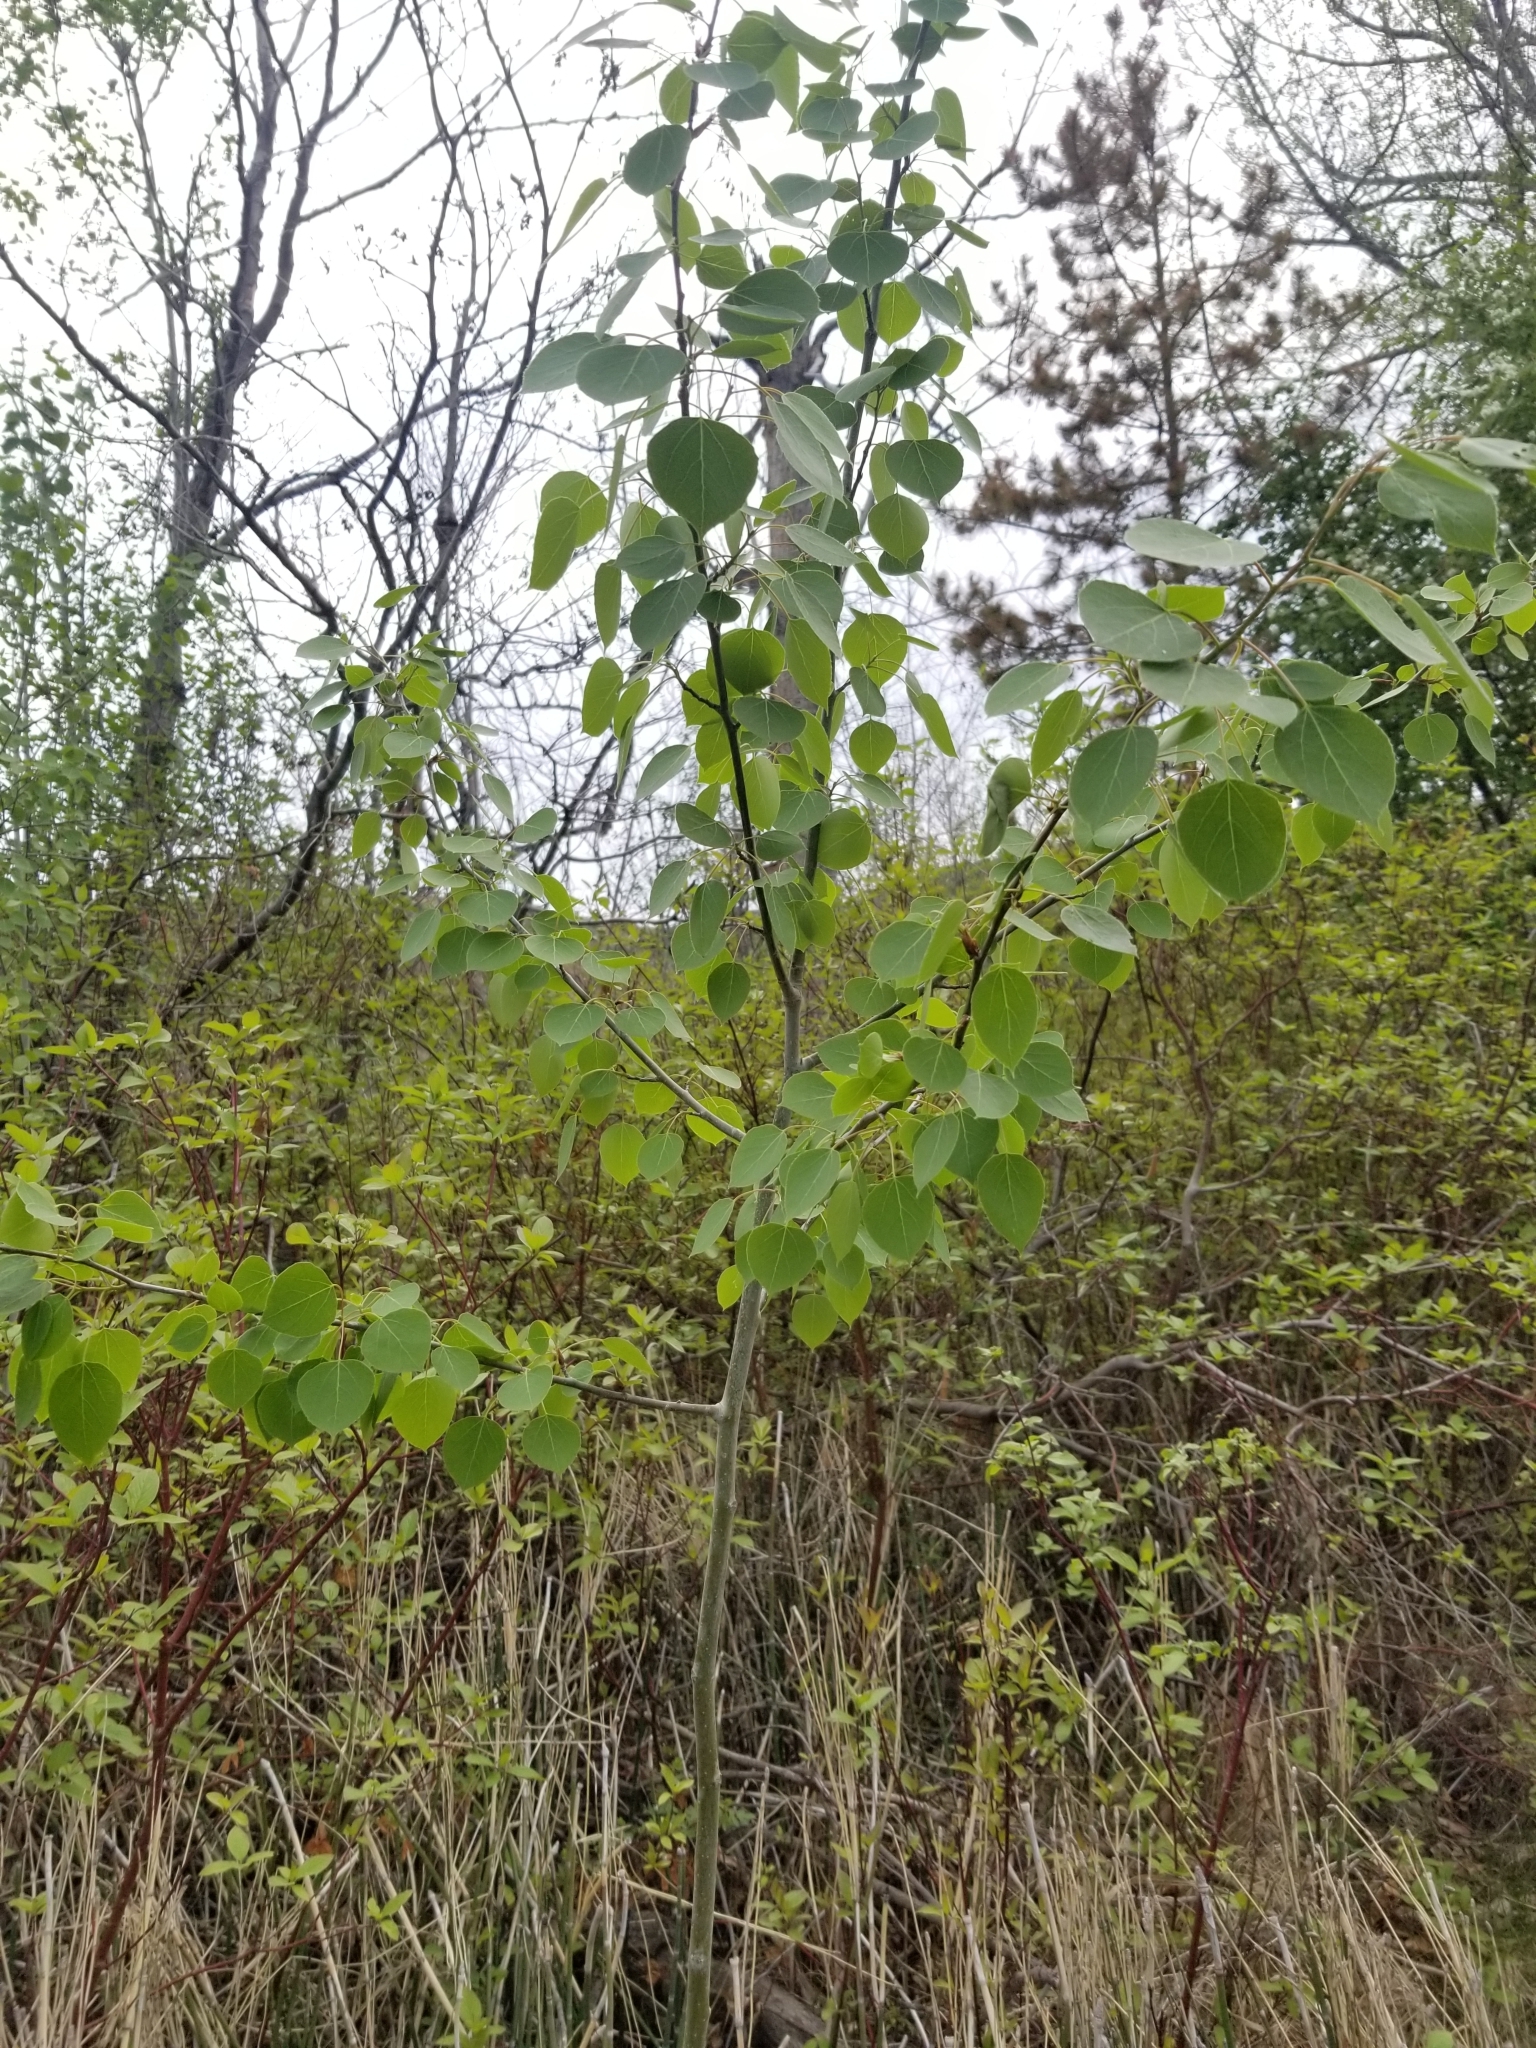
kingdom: Plantae
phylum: Tracheophyta
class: Magnoliopsida
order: Malpighiales
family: Salicaceae
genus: Populus
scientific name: Populus tremuloides
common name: Quaking aspen
